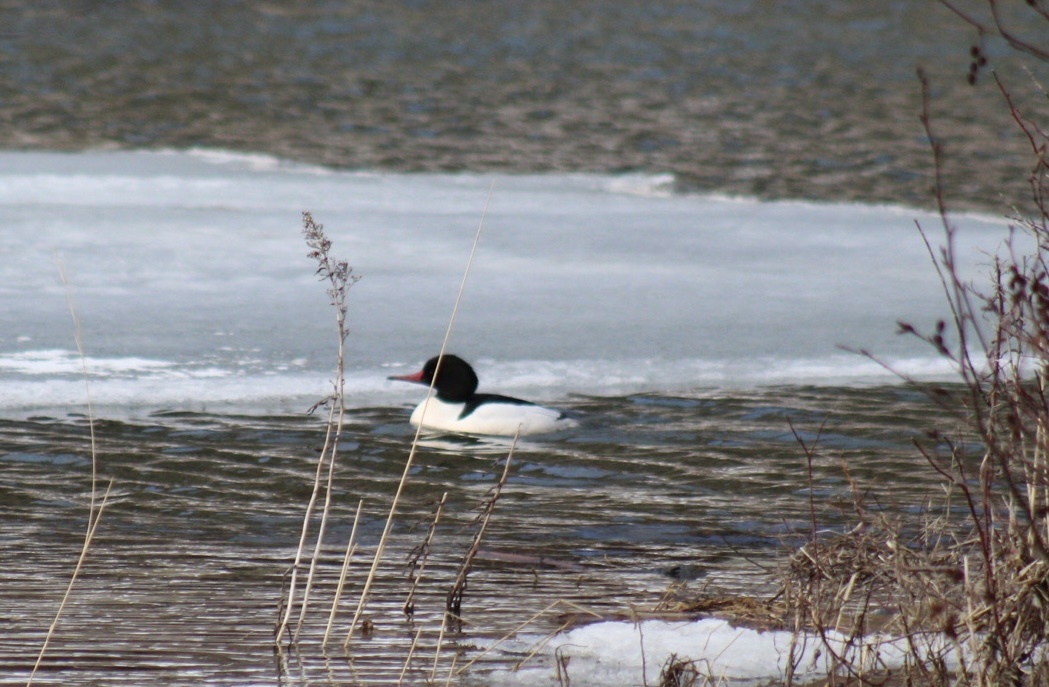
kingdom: Animalia
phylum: Chordata
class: Aves
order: Anseriformes
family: Anatidae
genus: Mergus
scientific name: Mergus merganser
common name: Common merganser
